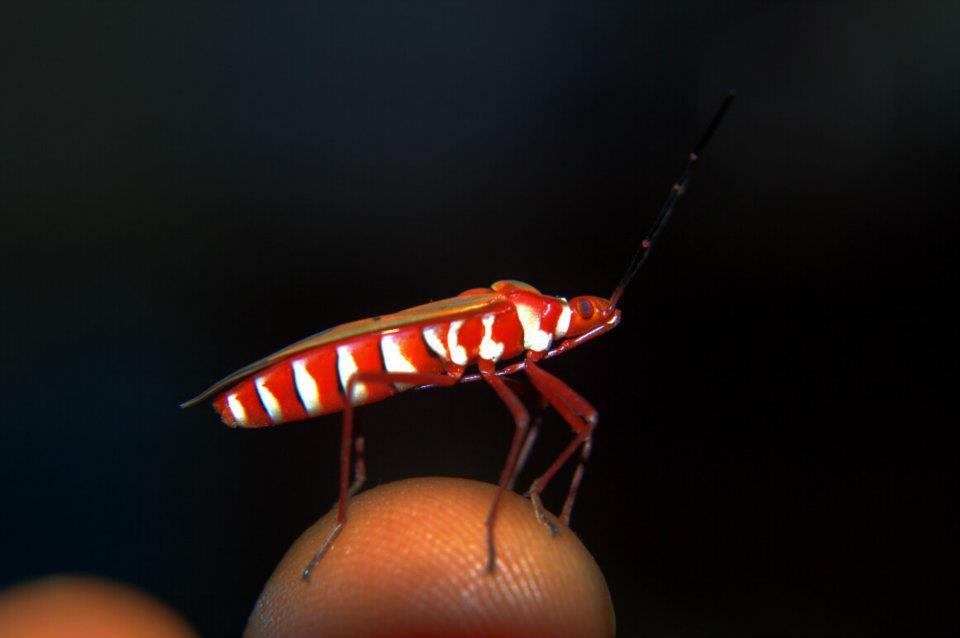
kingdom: Animalia
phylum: Arthropoda
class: Insecta
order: Hemiptera
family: Pyrrhocoridae
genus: Dysdercus
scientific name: Dysdercus evanescens
